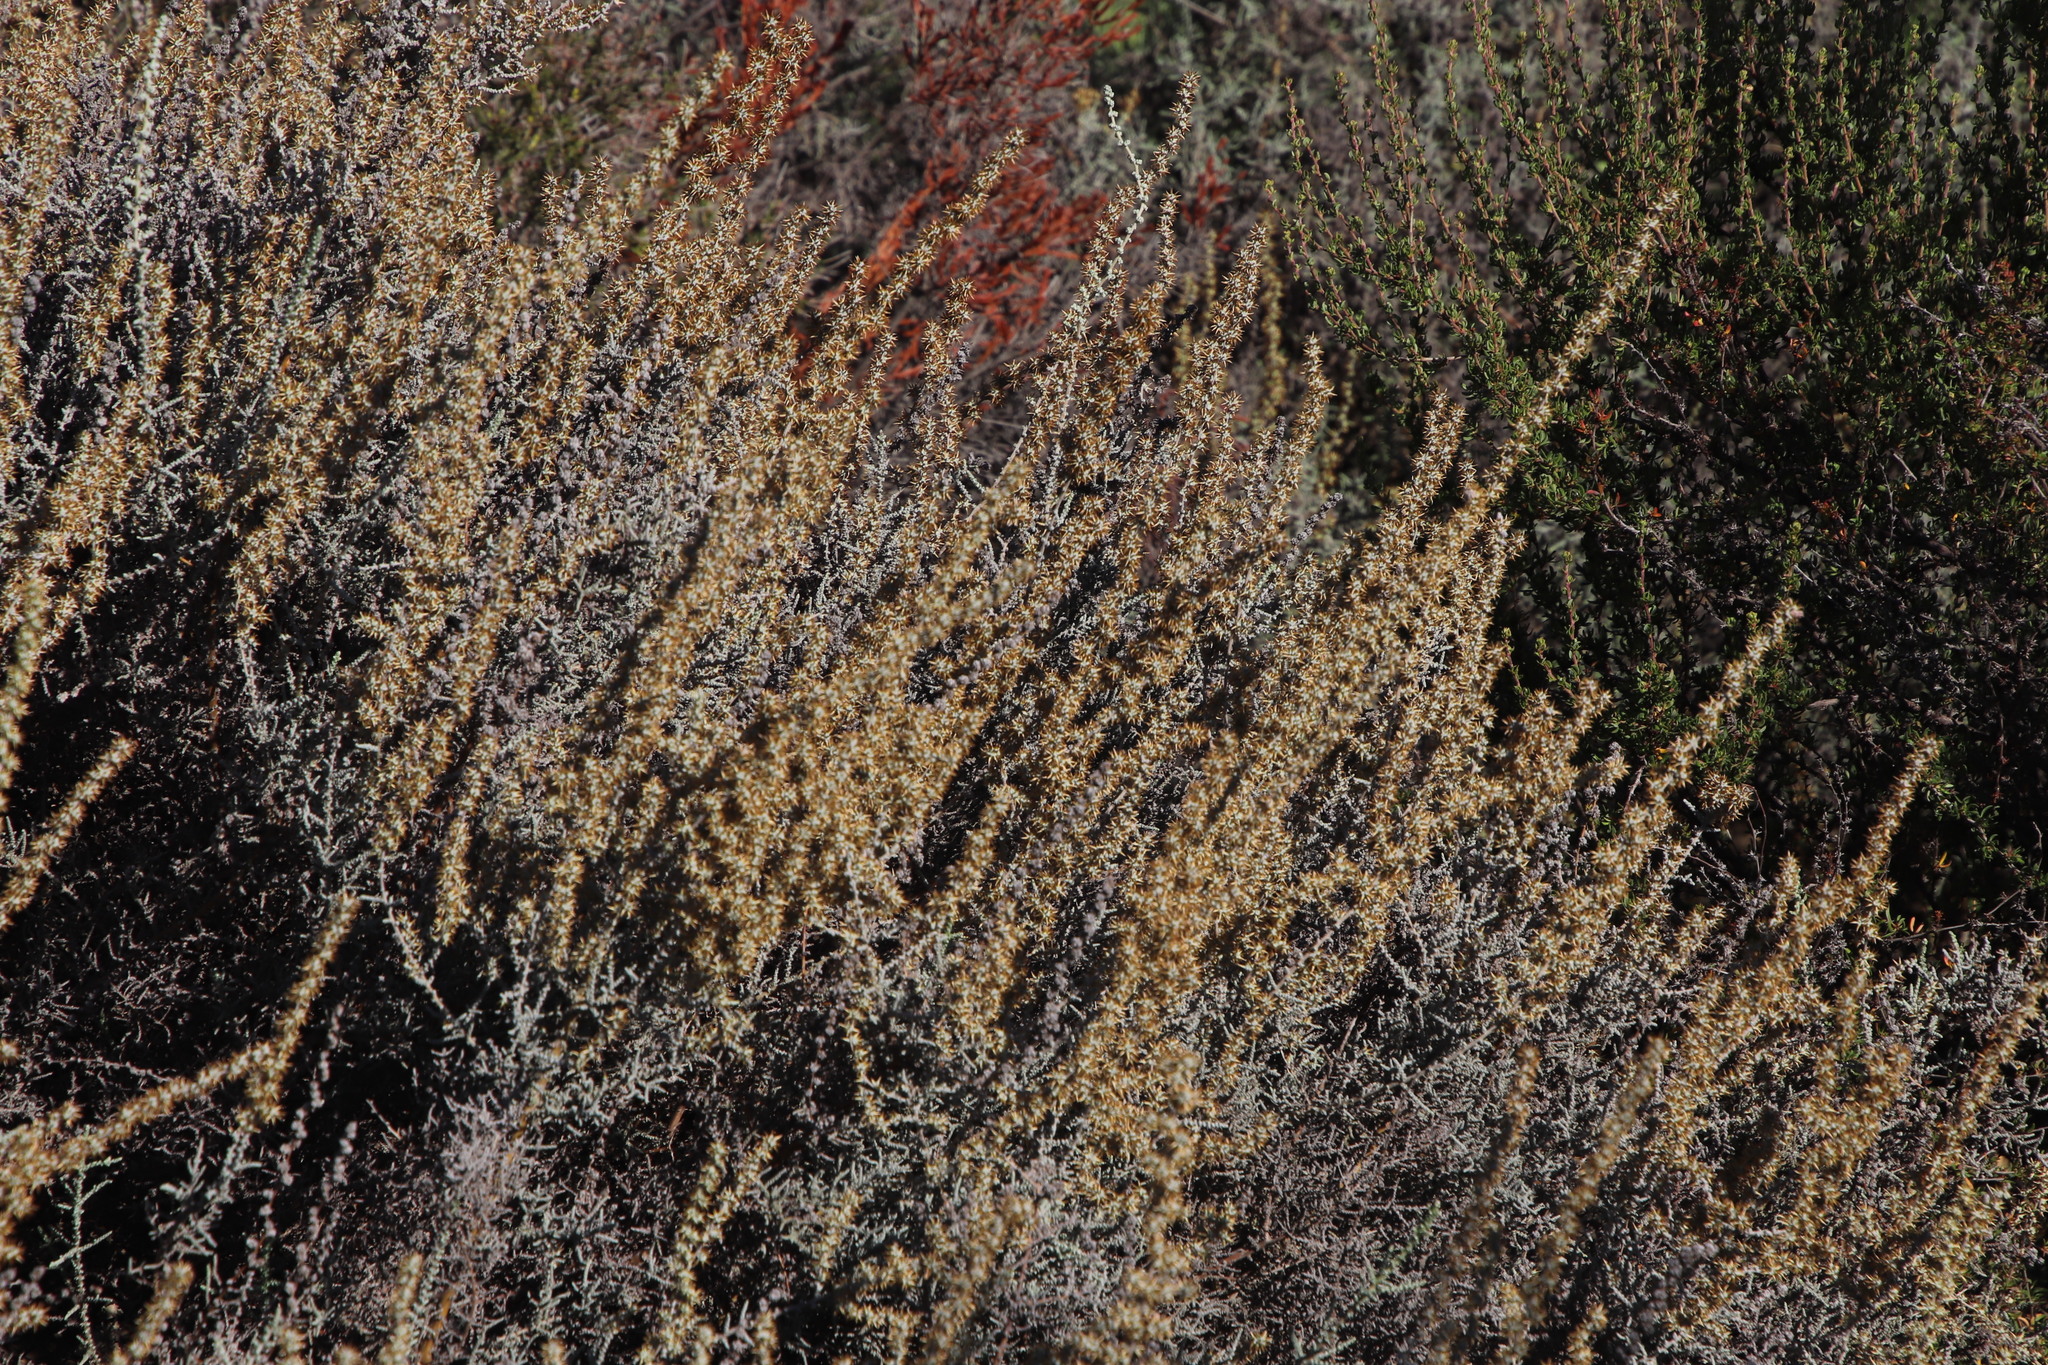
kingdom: Plantae
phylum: Tracheophyta
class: Magnoliopsida
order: Asterales
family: Asteraceae
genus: Seriphium
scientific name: Seriphium plumosum
